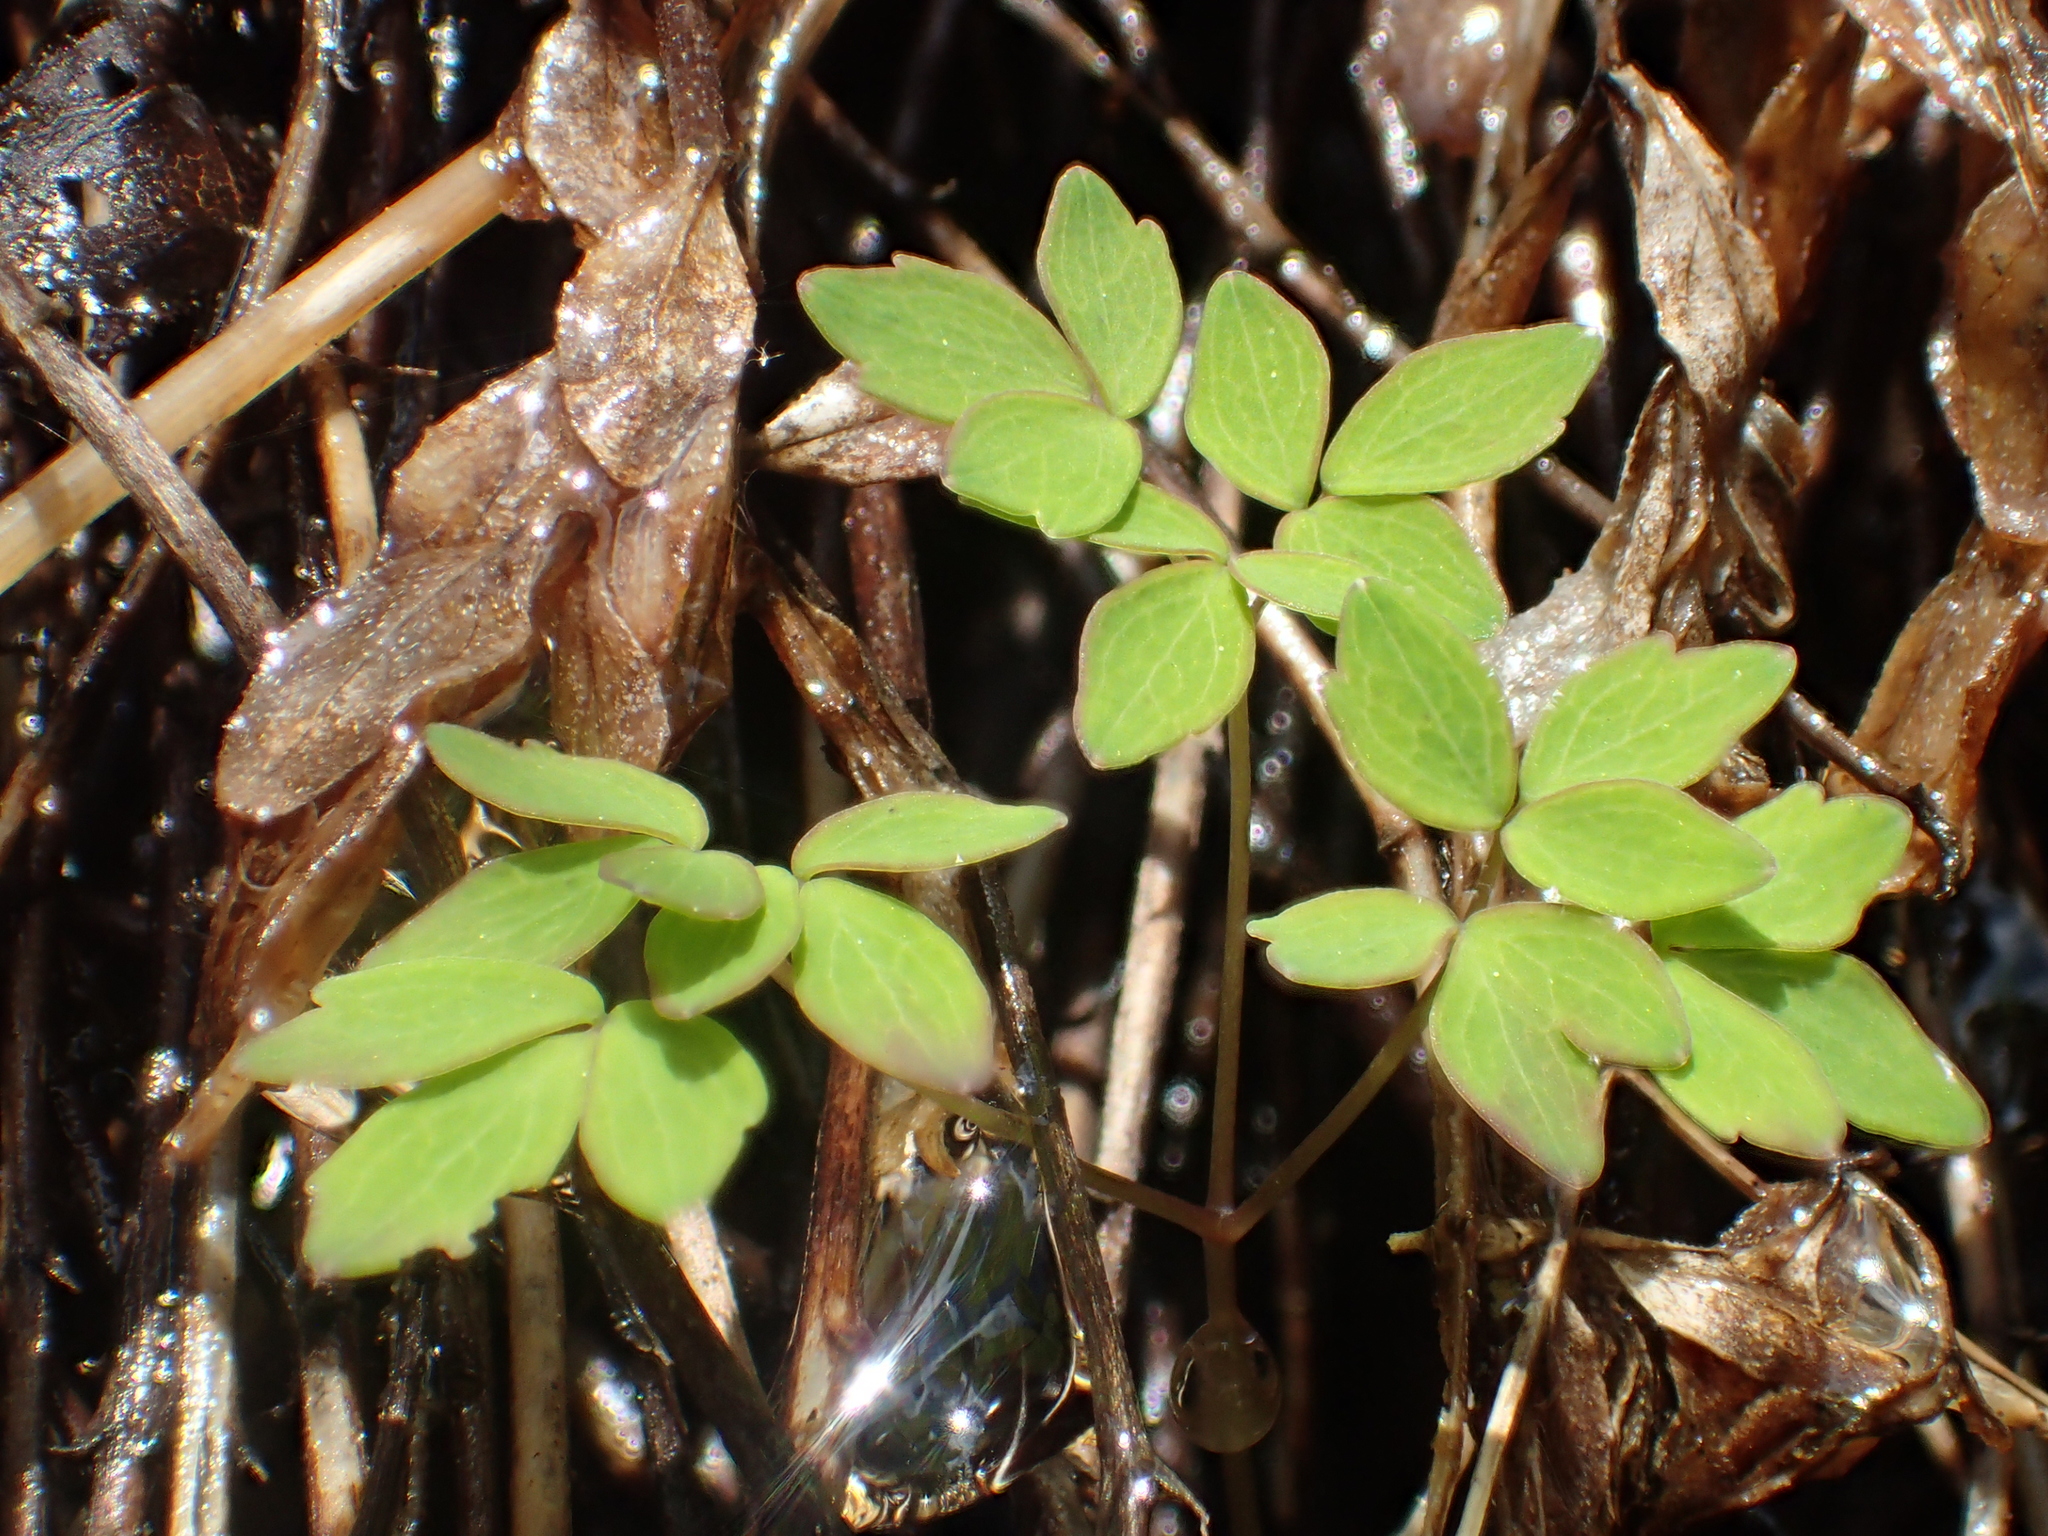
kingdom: Plantae
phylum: Tracheophyta
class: Magnoliopsida
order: Ranunculales
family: Ranunculaceae
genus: Thalictrum
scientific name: Thalictrum urbaini
